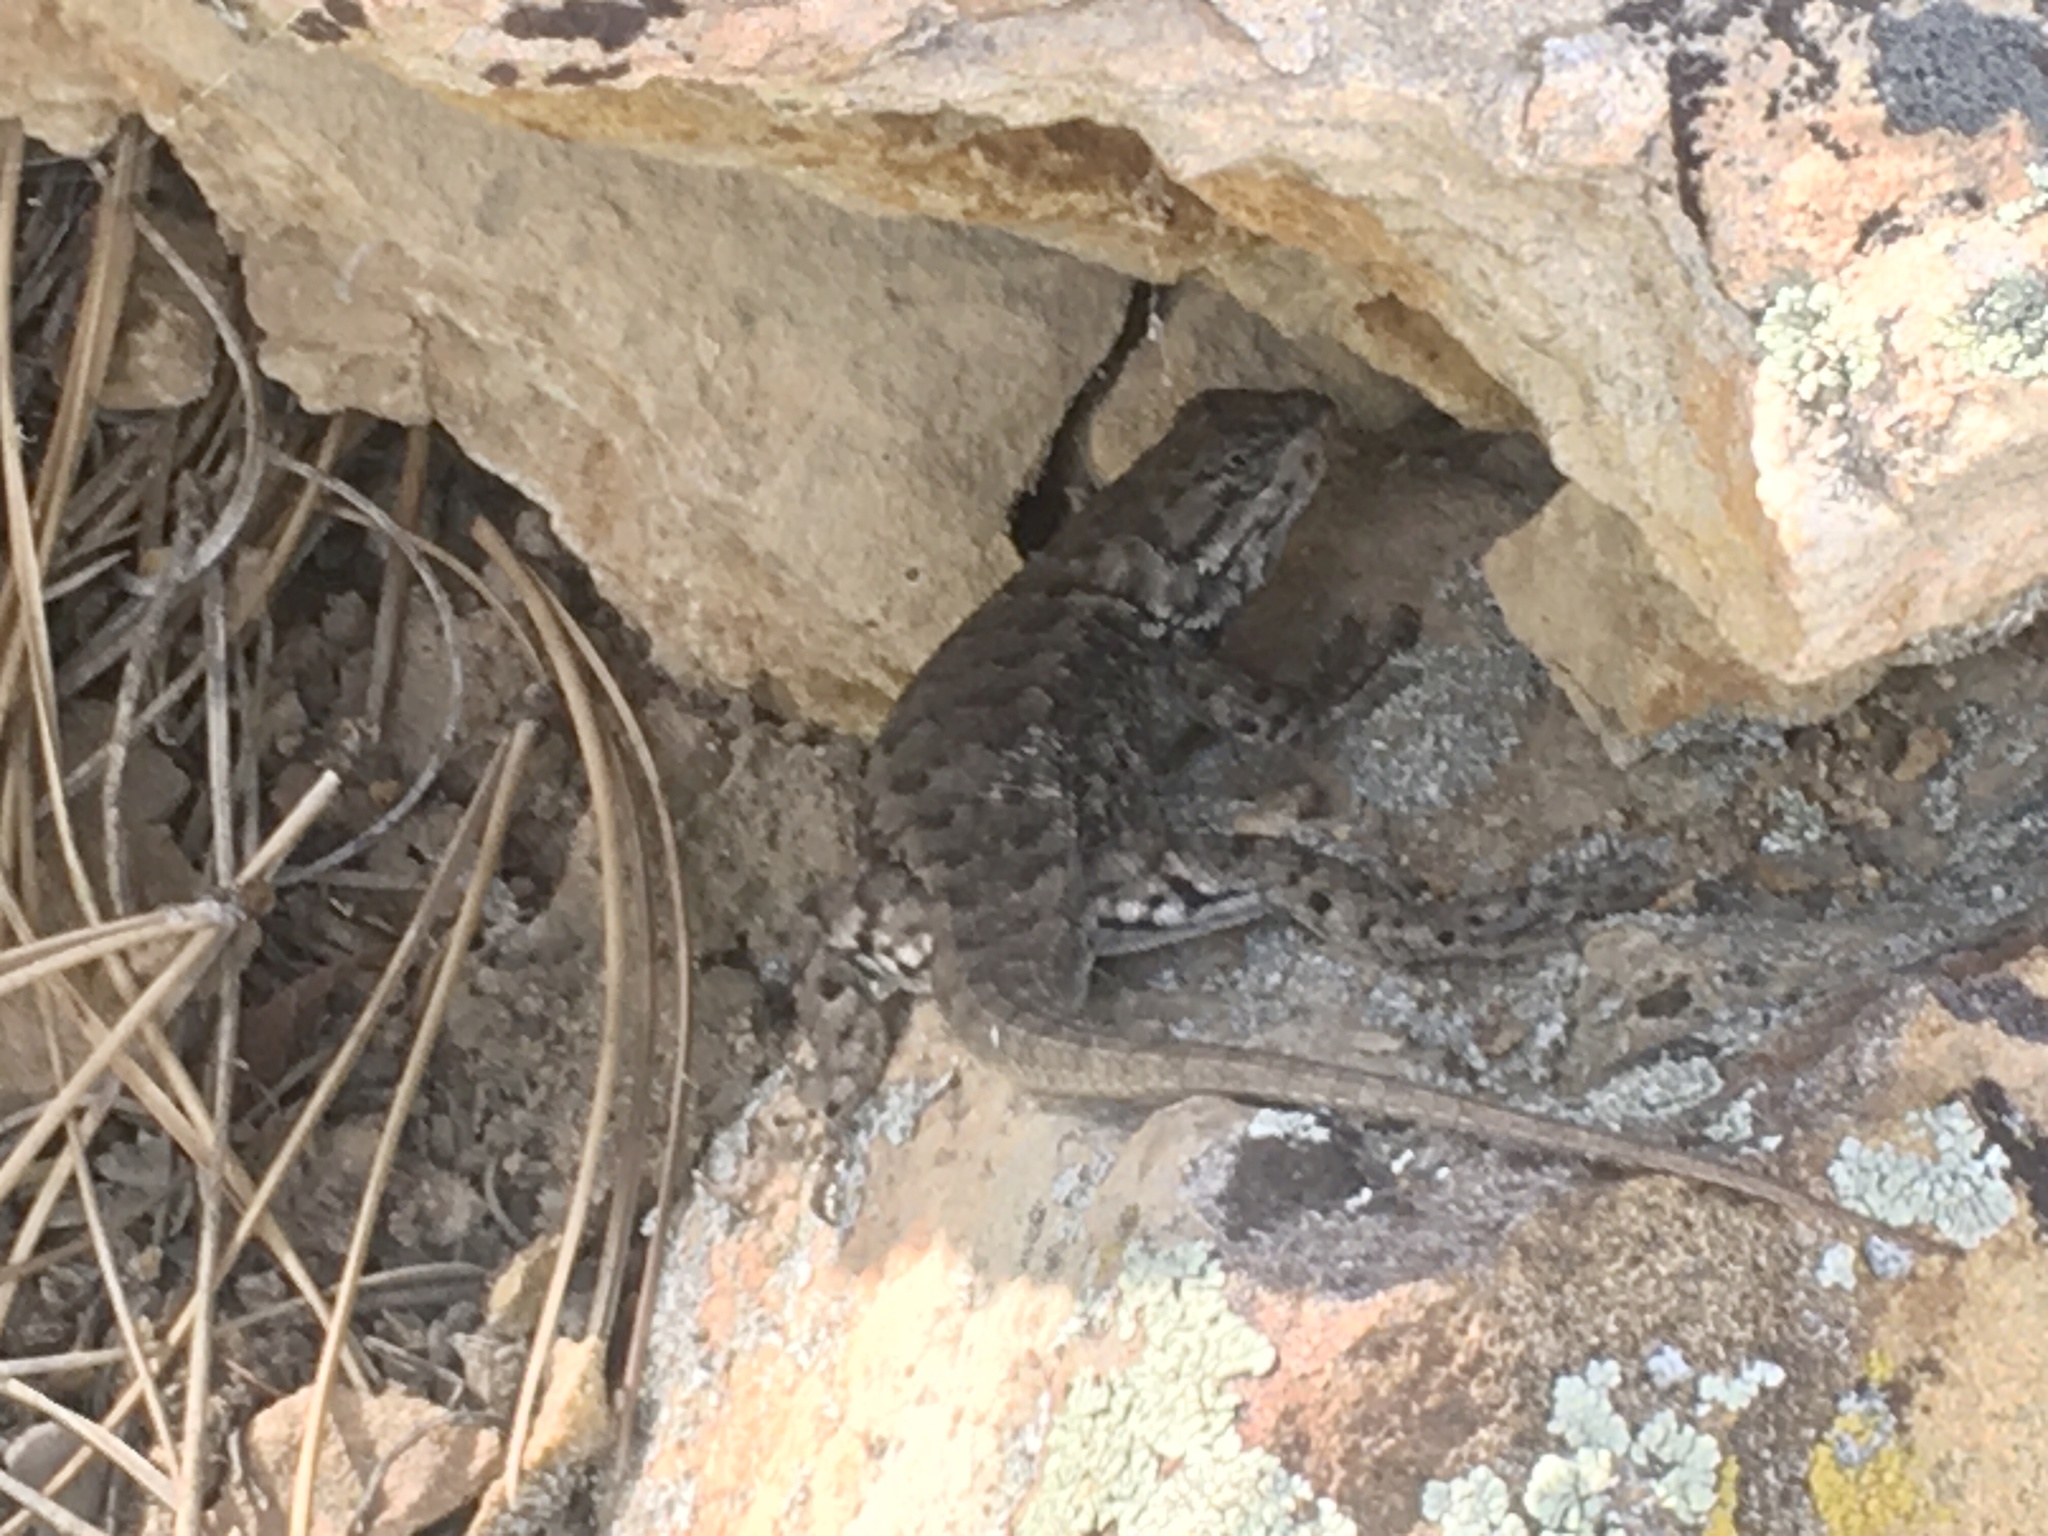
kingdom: Animalia
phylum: Chordata
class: Squamata
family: Phrynosomatidae
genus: Sceloporus
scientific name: Sceloporus consobrinus
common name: Southern prairie lizard
